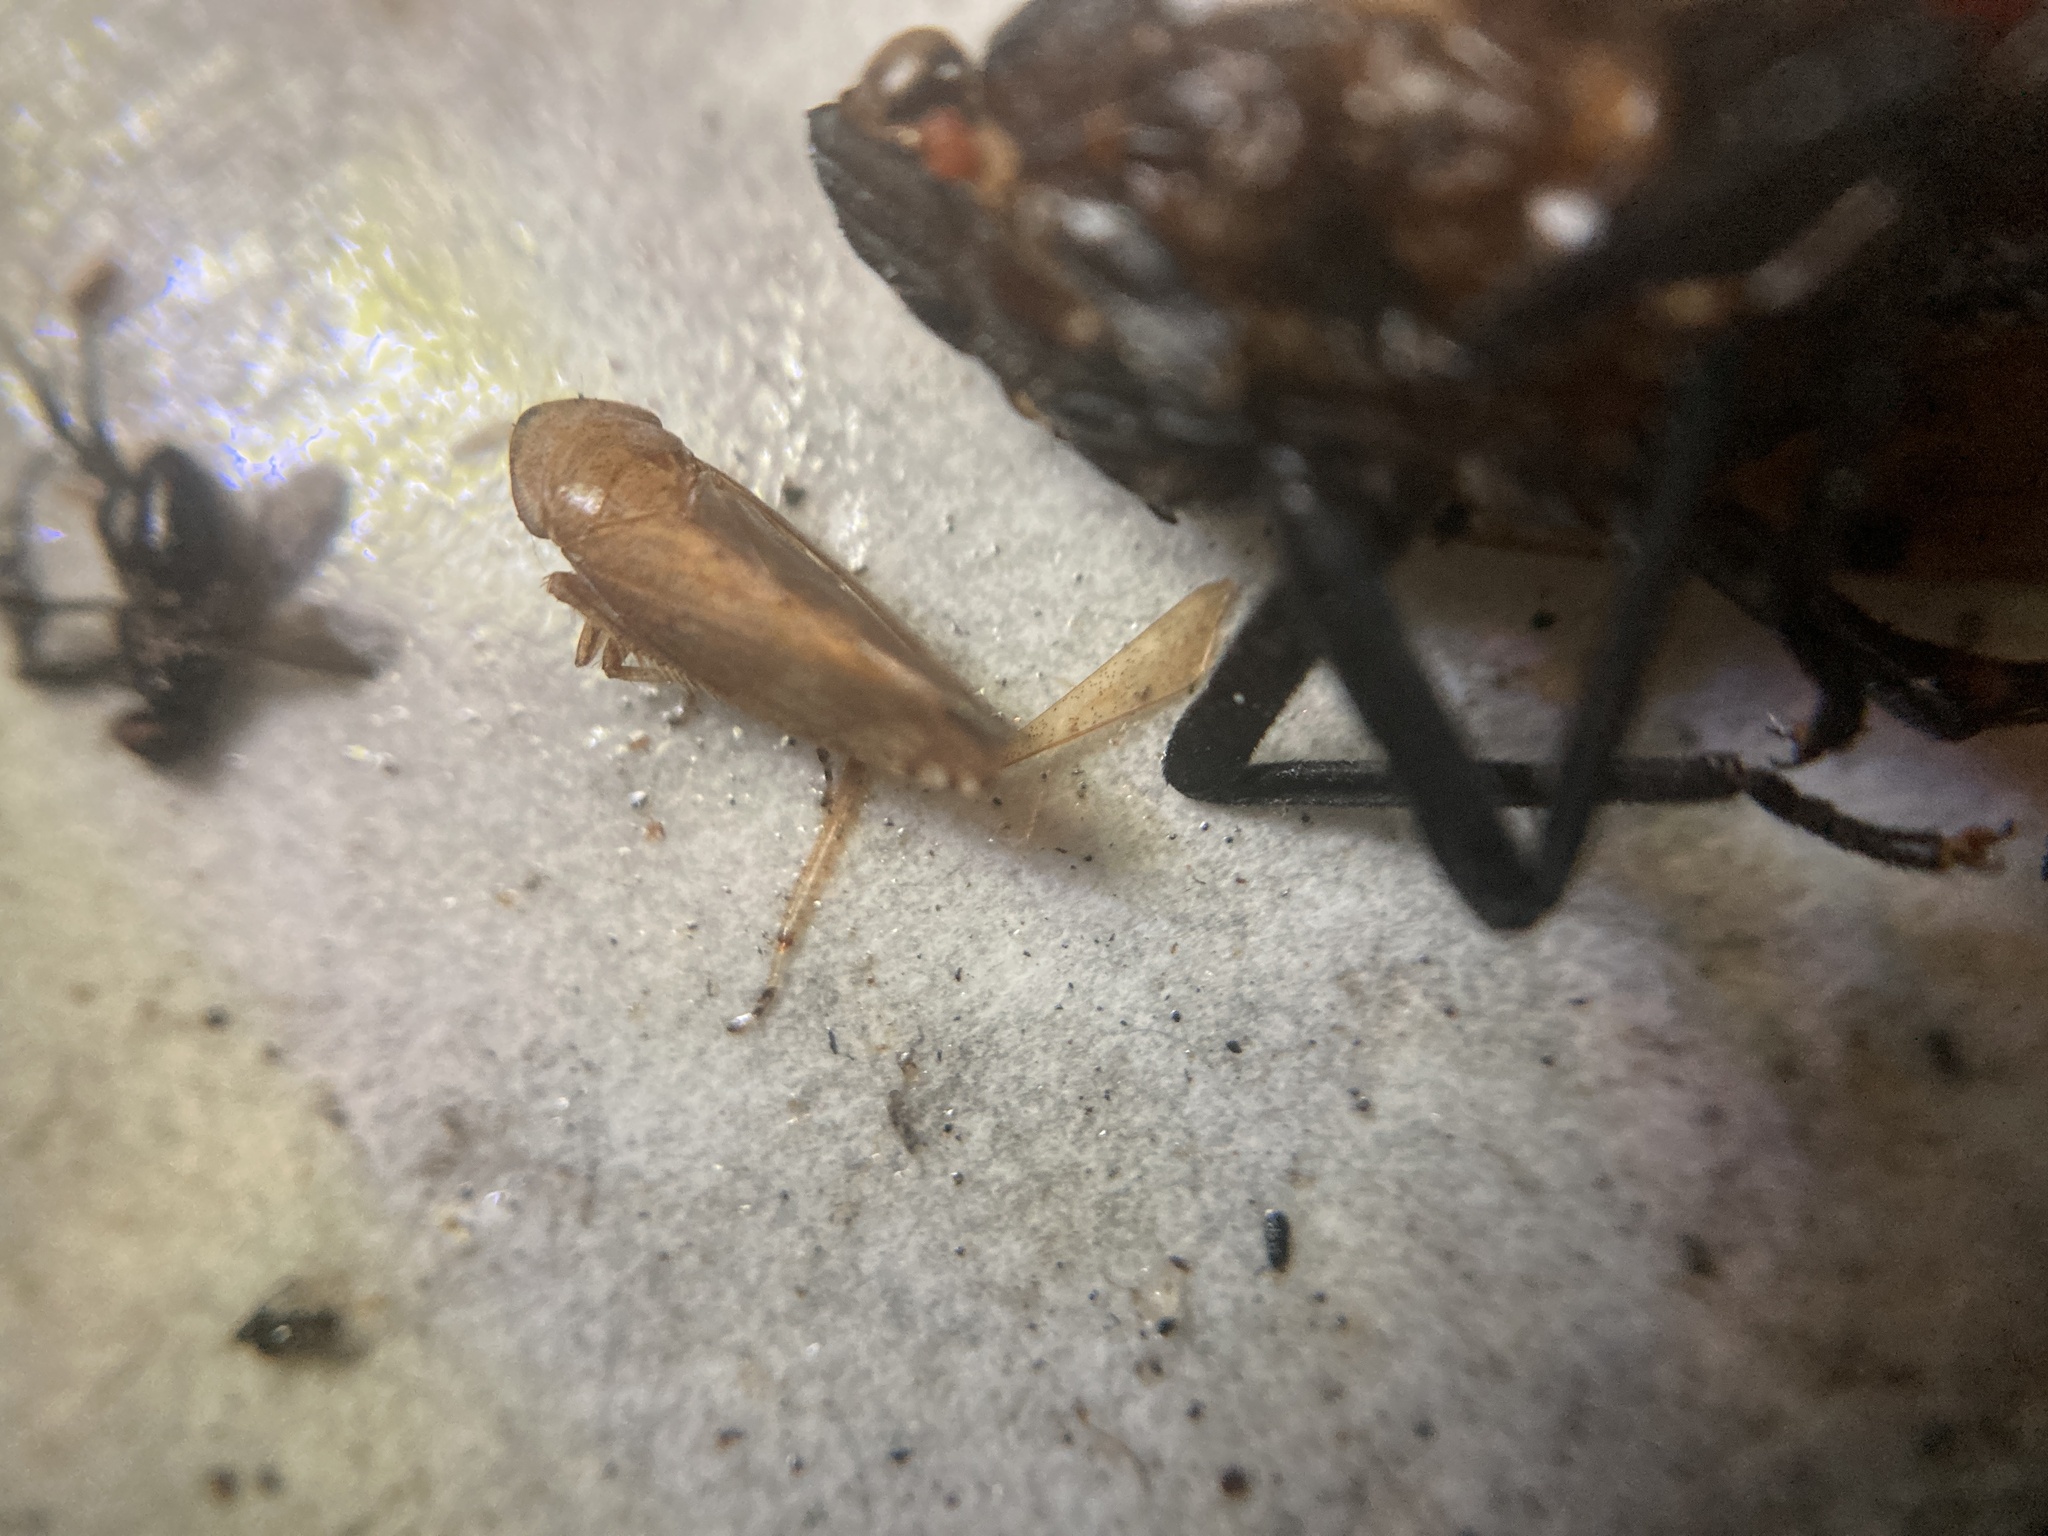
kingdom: Animalia
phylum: Arthropoda
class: Insecta
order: Hemiptera
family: Cicadellidae
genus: Fieberiella
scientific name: Fieberiella florii
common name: Flor’s leafhopper
